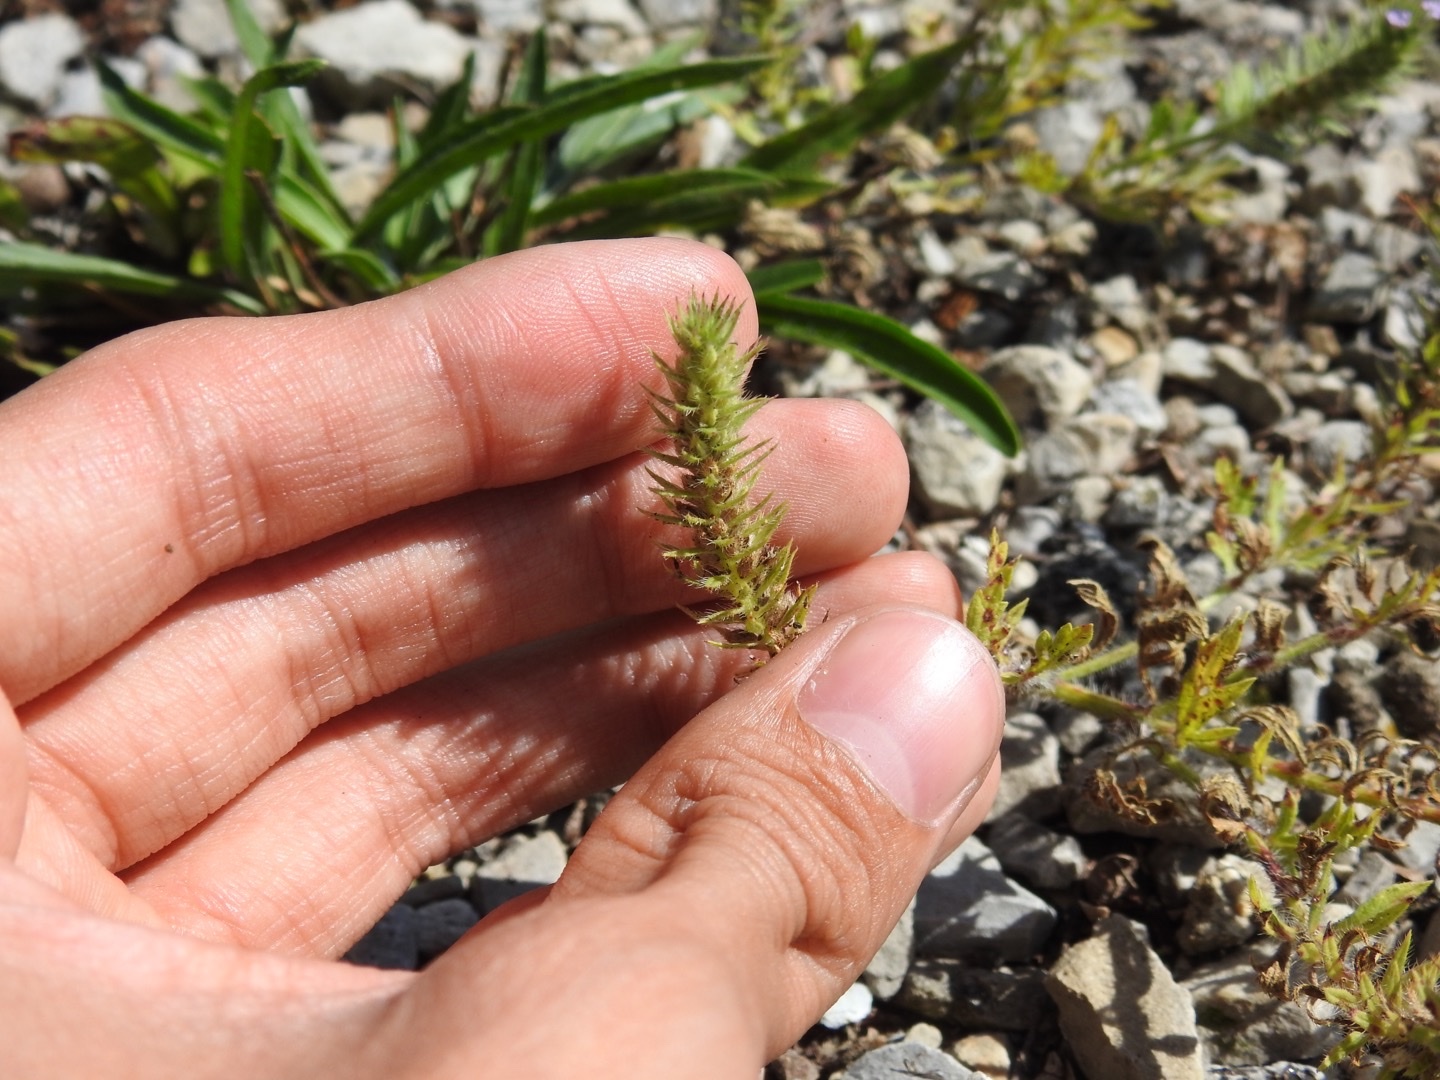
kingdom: Plantae
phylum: Tracheophyta
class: Magnoliopsida
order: Lamiales
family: Verbenaceae
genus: Verbena
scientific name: Verbena bracteata
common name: Bracted vervain
